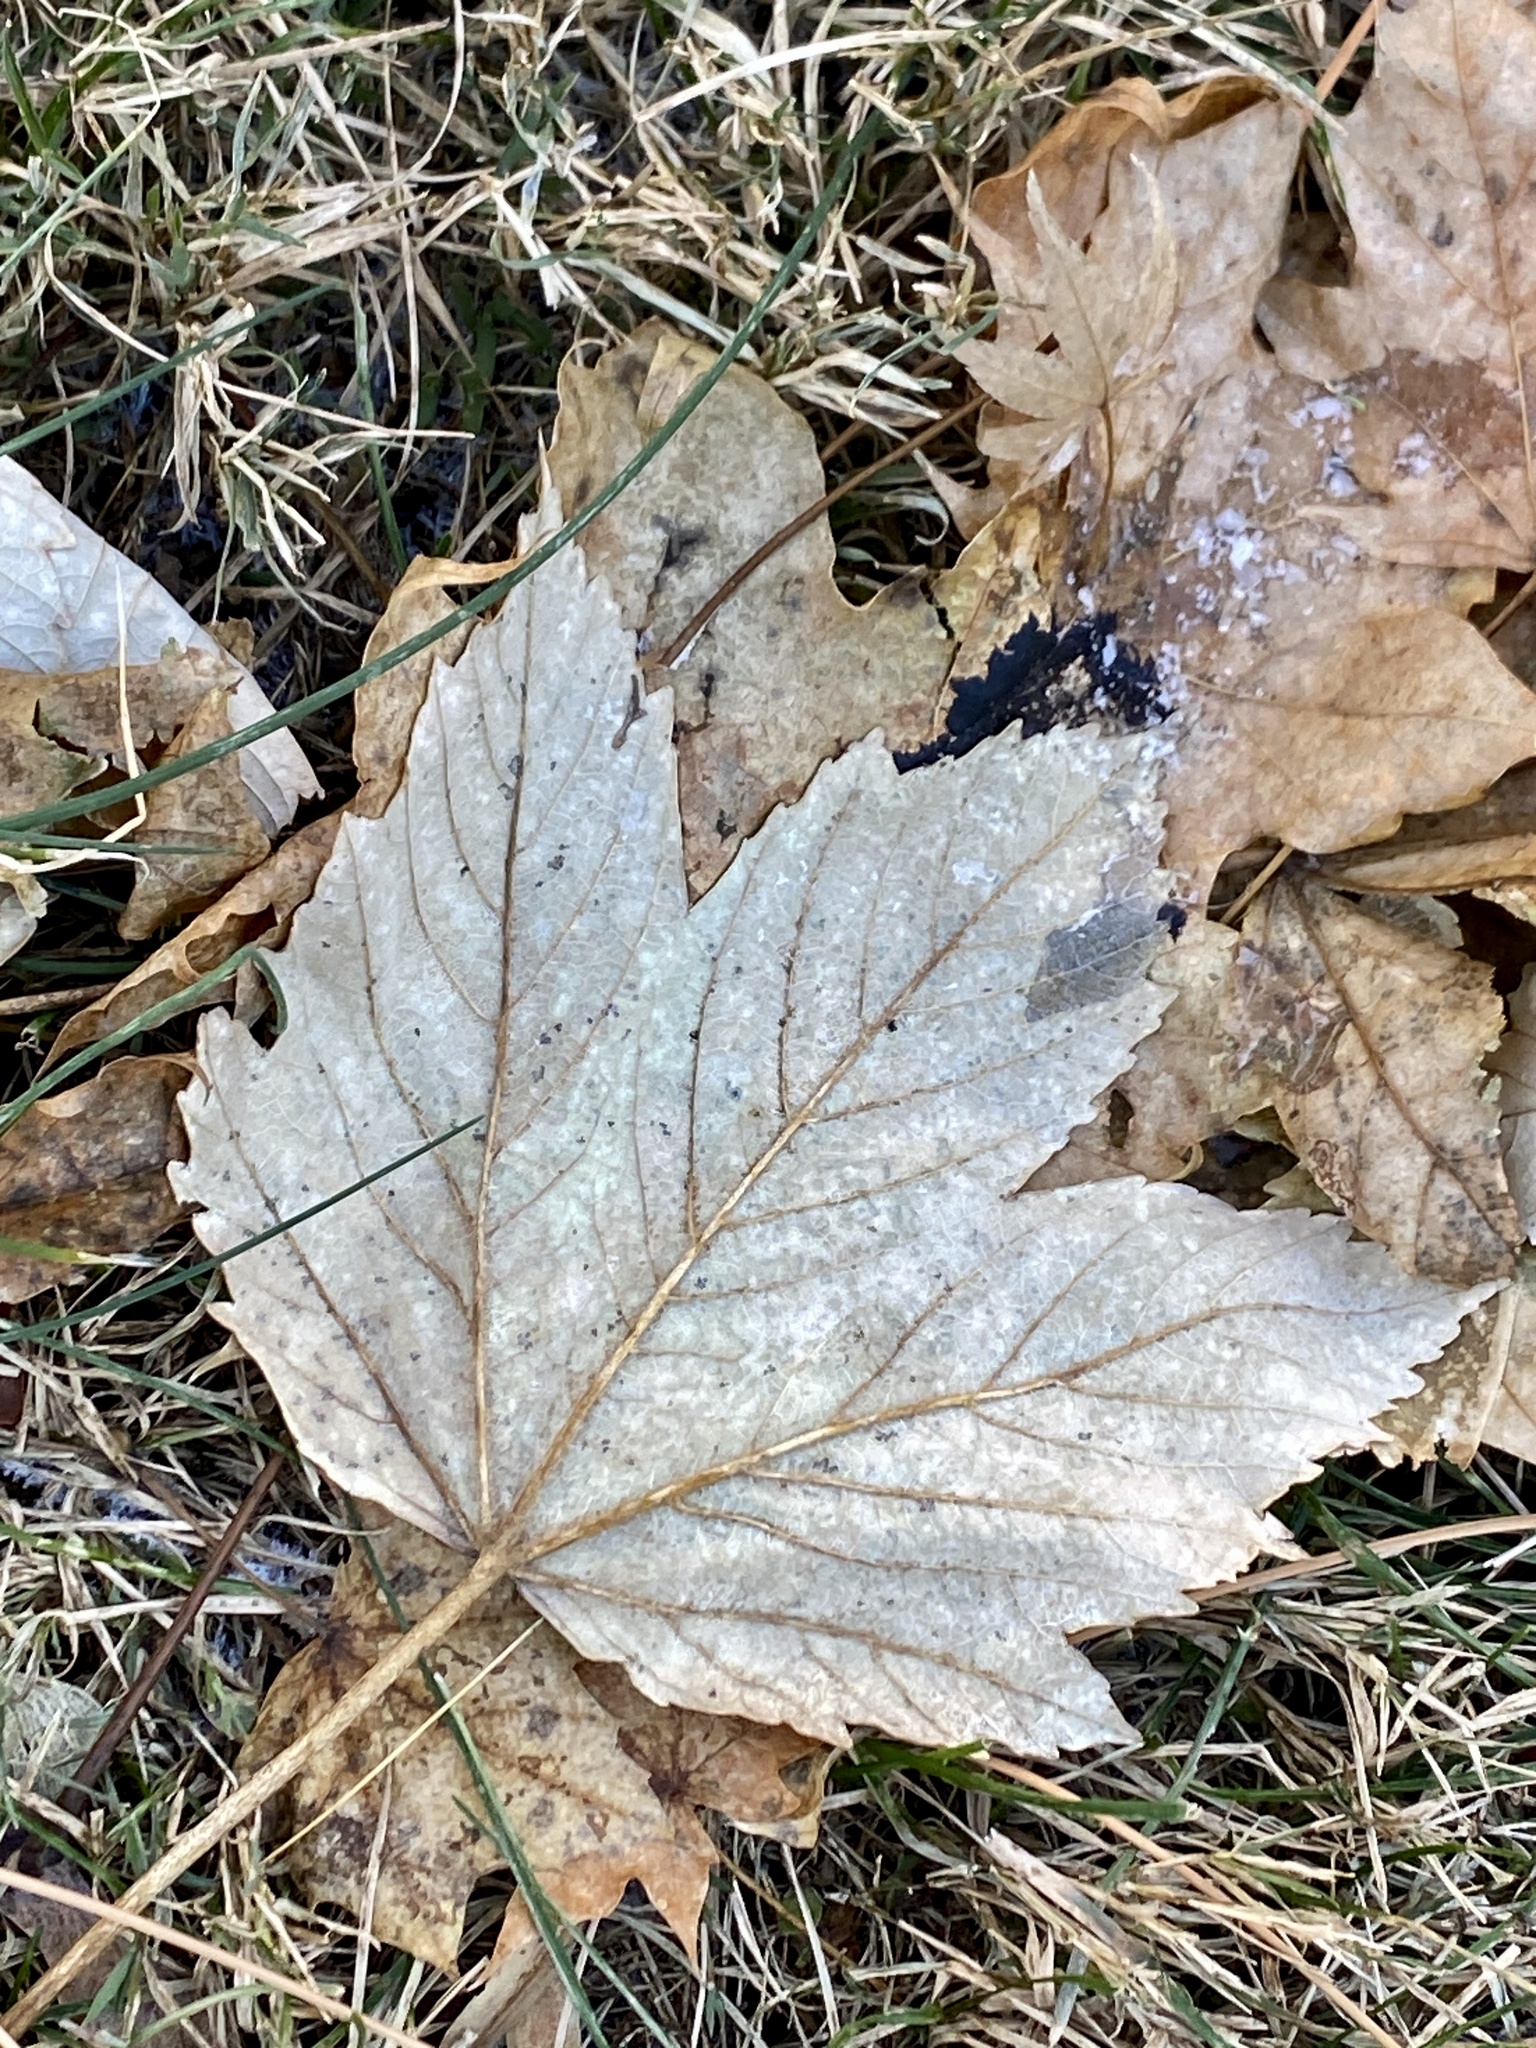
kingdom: Plantae
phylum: Tracheophyta
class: Magnoliopsida
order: Sapindales
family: Sapindaceae
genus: Acer
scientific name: Acer pseudoplatanus
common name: Sycamore
